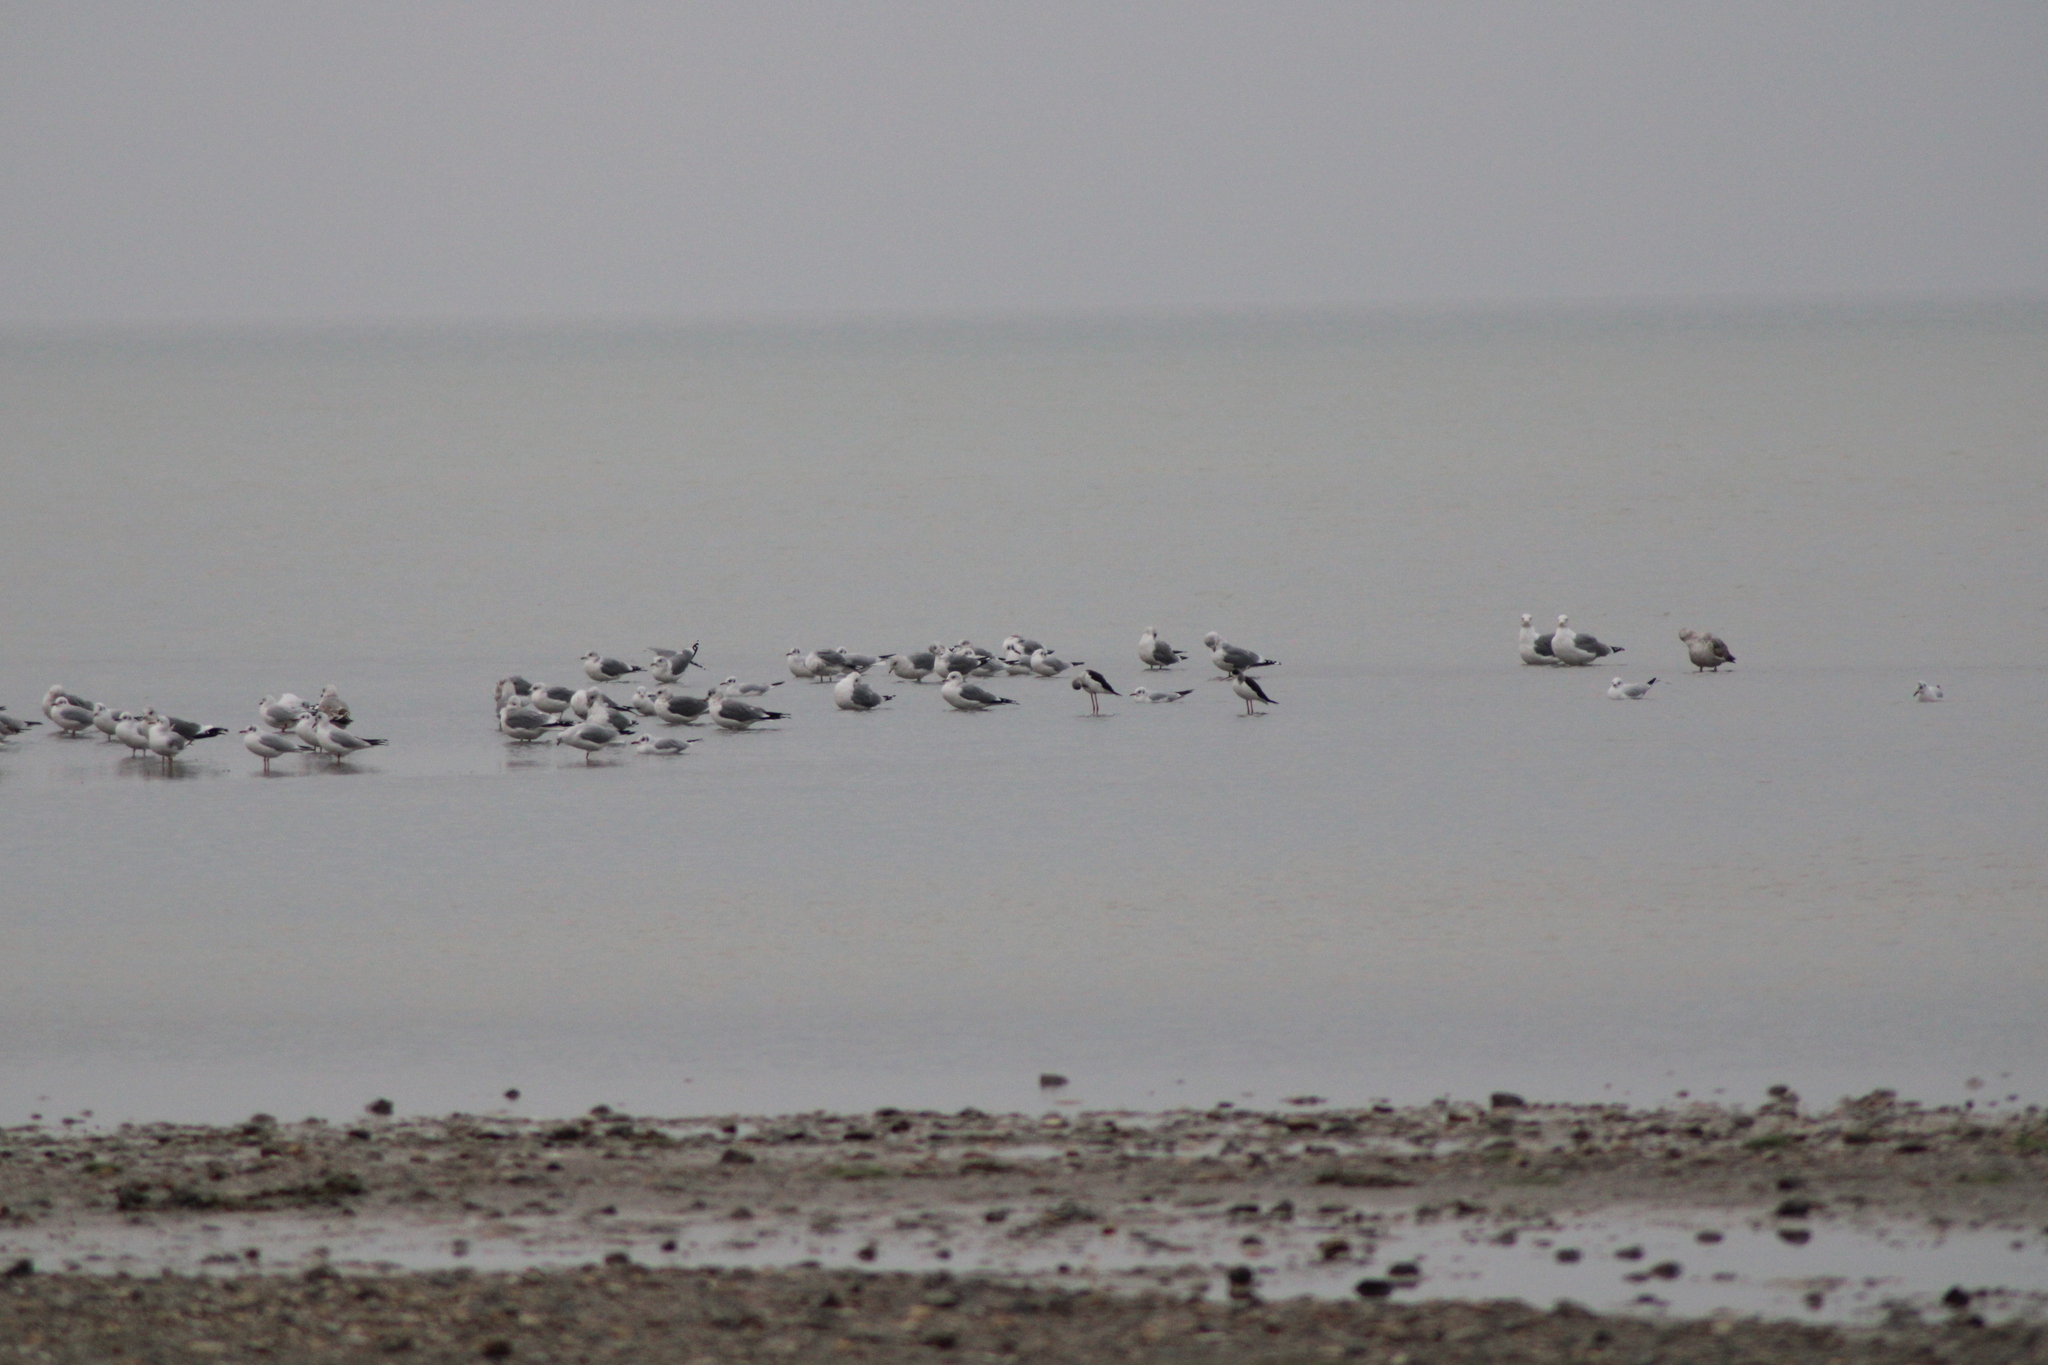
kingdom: Animalia
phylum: Chordata
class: Aves
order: Charadriiformes
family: Recurvirostridae
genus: Himantopus
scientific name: Himantopus himantopus
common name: Black-winged stilt
